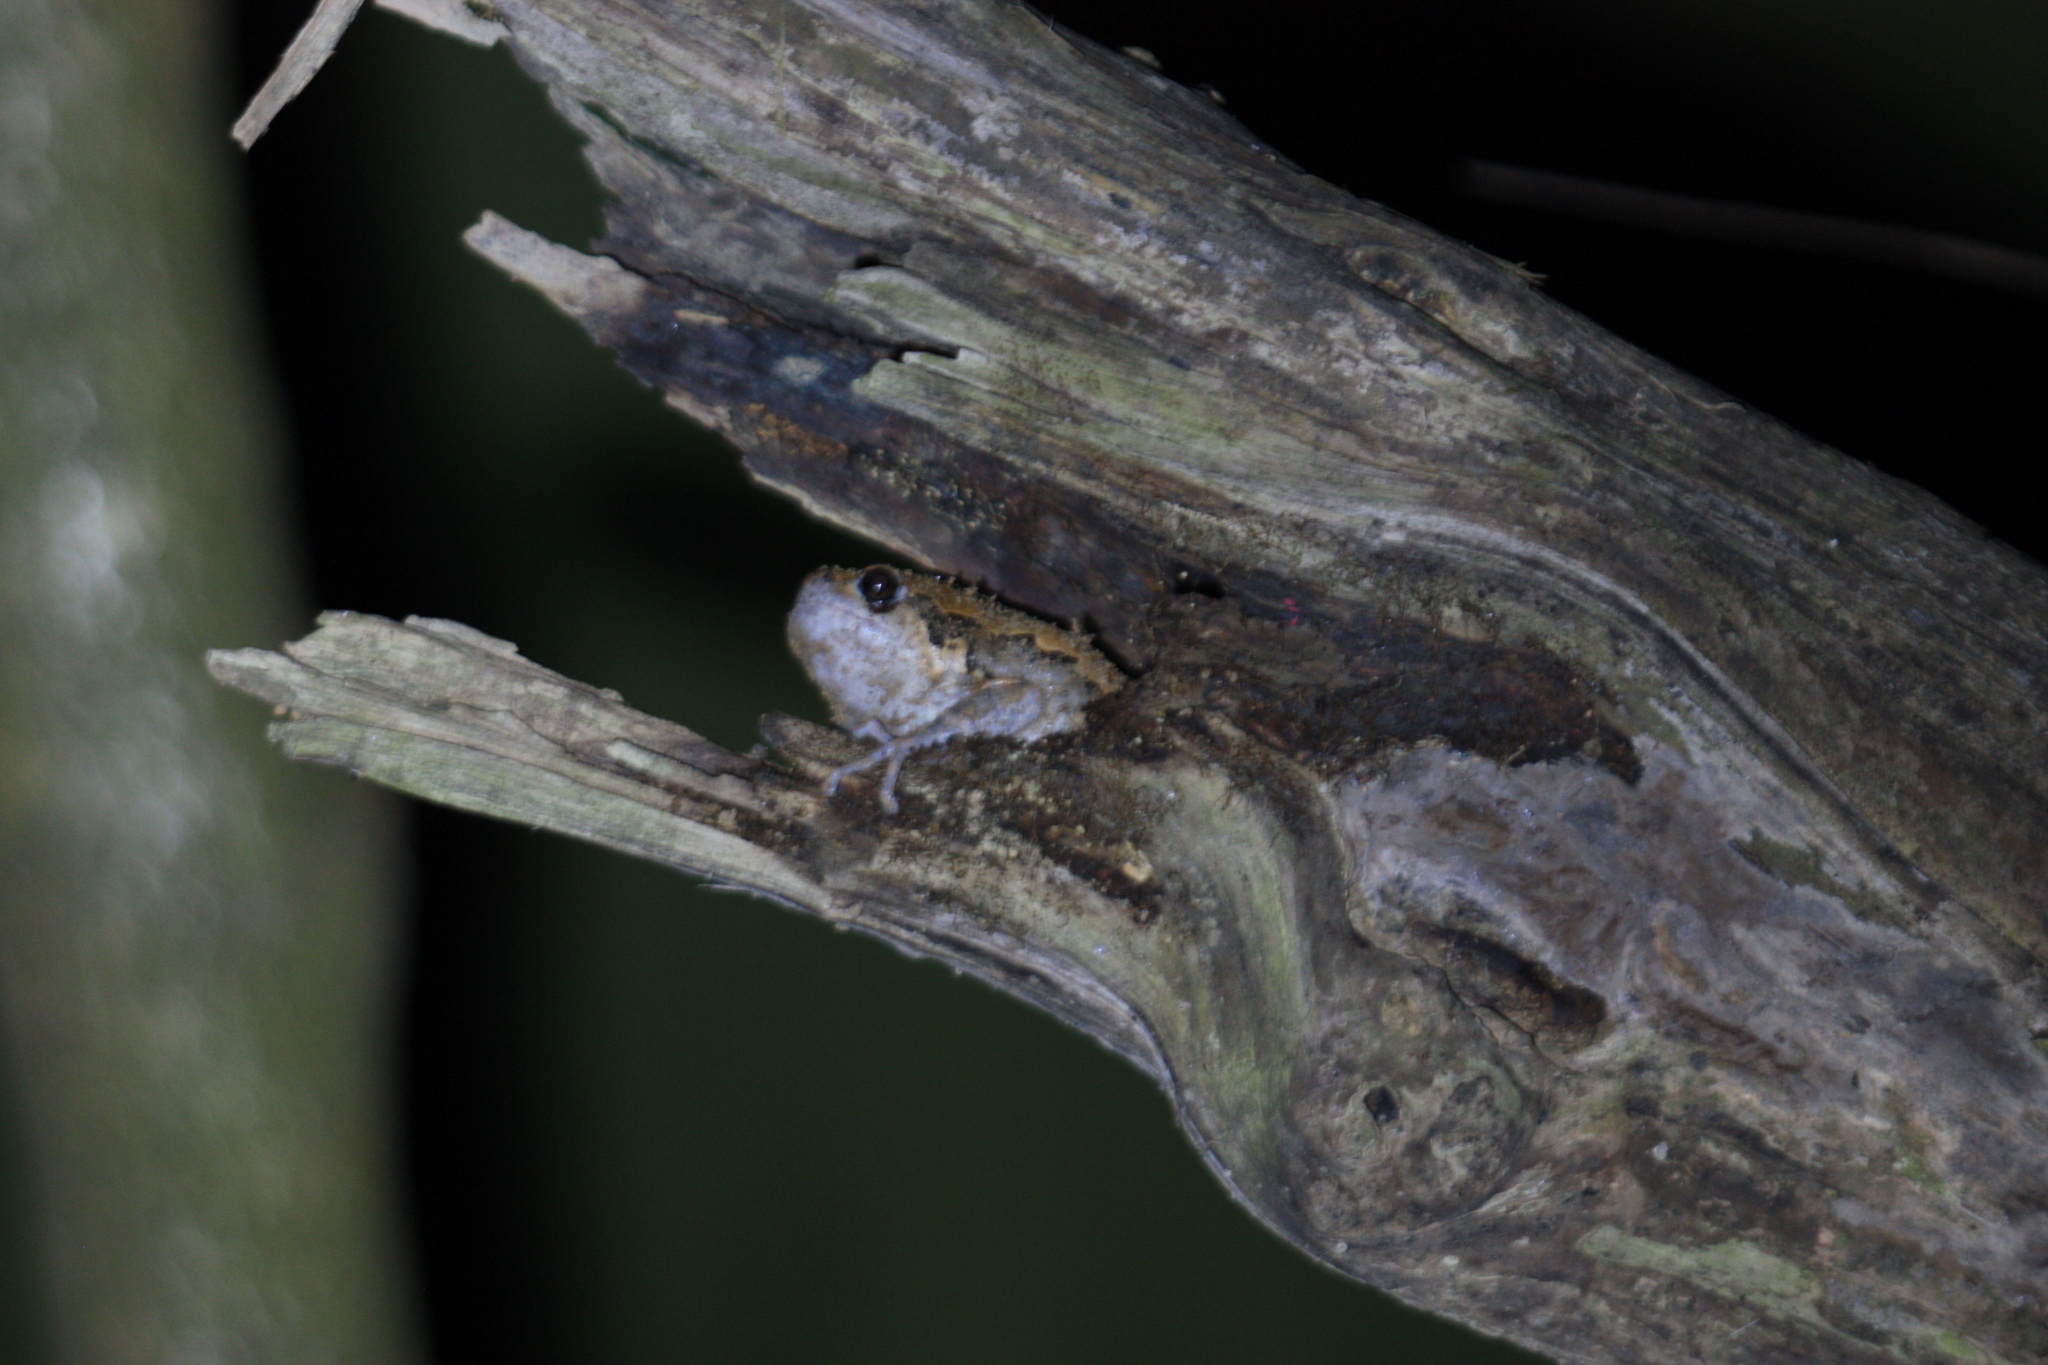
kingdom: Animalia
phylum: Chordata
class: Amphibia
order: Anura
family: Microhylidae
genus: Kaloula
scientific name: Kaloula pulchra
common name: Common,banded bullfrog
